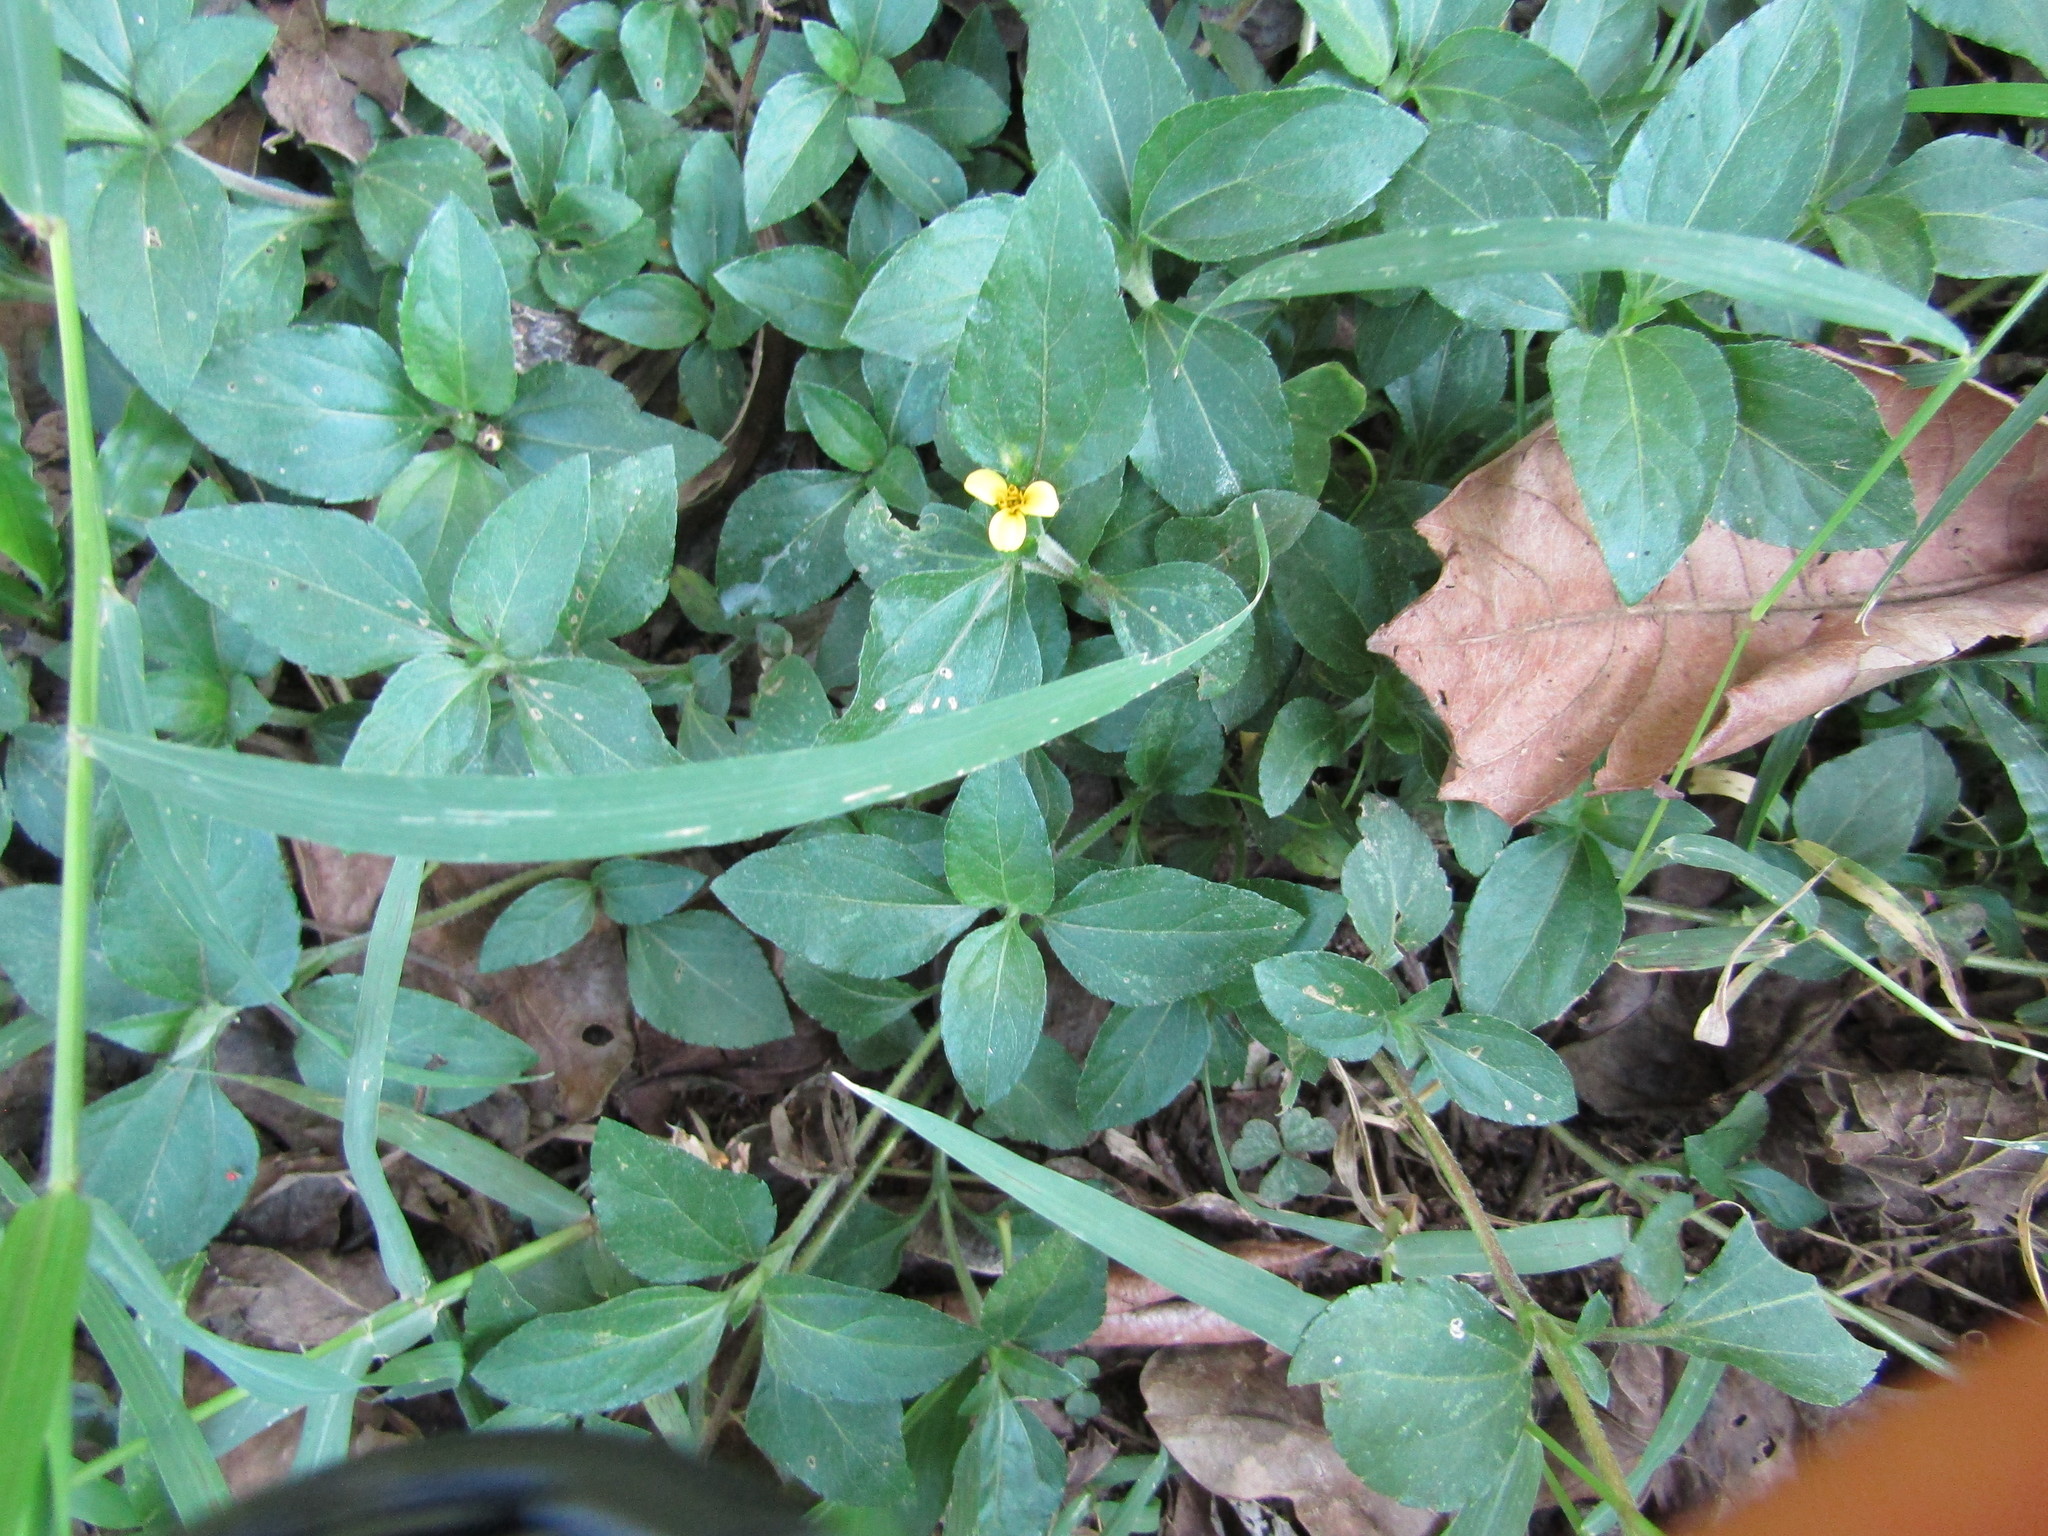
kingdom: Plantae
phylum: Tracheophyta
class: Magnoliopsida
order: Asterales
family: Asteraceae
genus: Calyptocarpus
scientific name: Calyptocarpus vialis
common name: Straggler daisy
